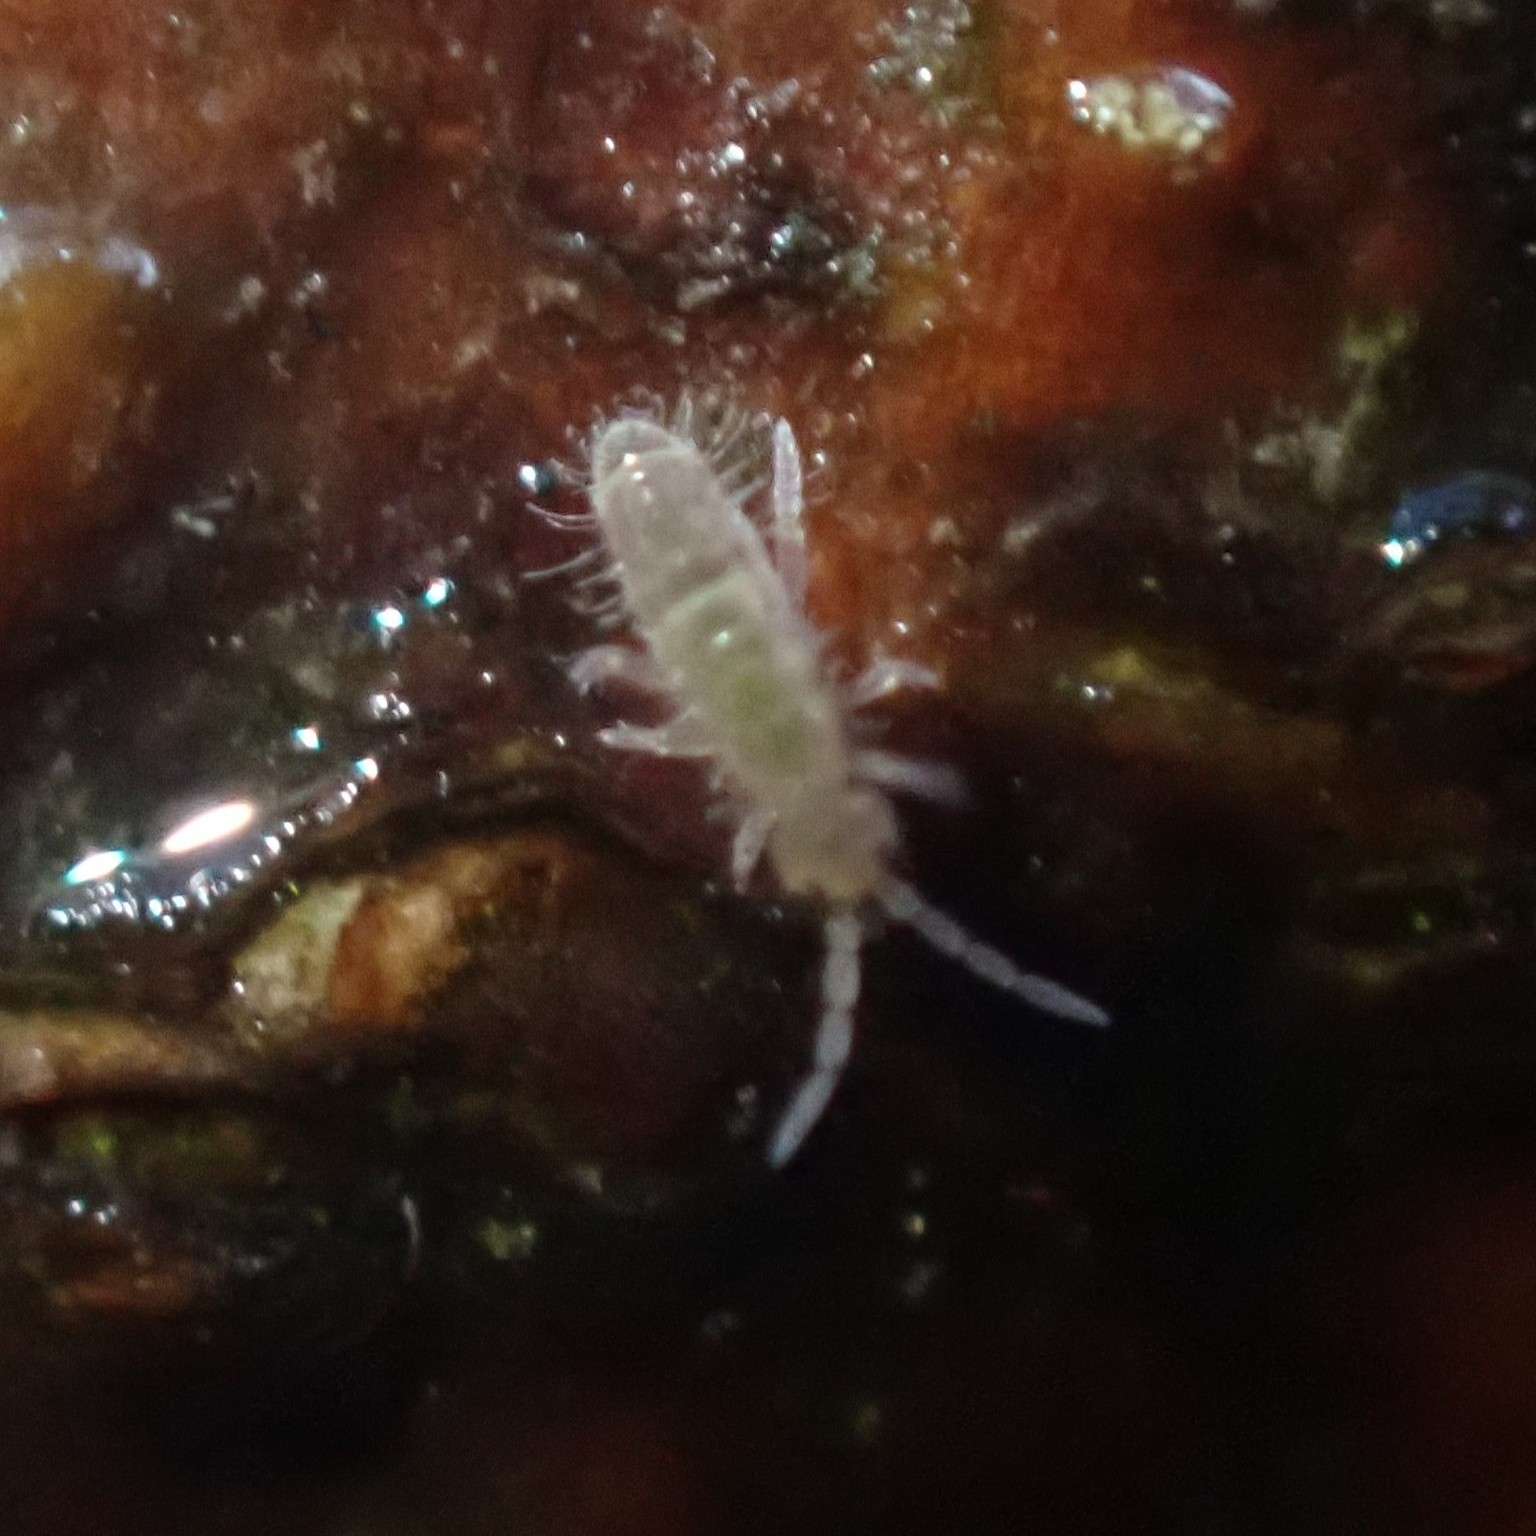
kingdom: Animalia
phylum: Arthropoda
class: Collembola
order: Entomobryomorpha
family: Orchesellidae
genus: Orchesella
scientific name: Orchesella cincta
